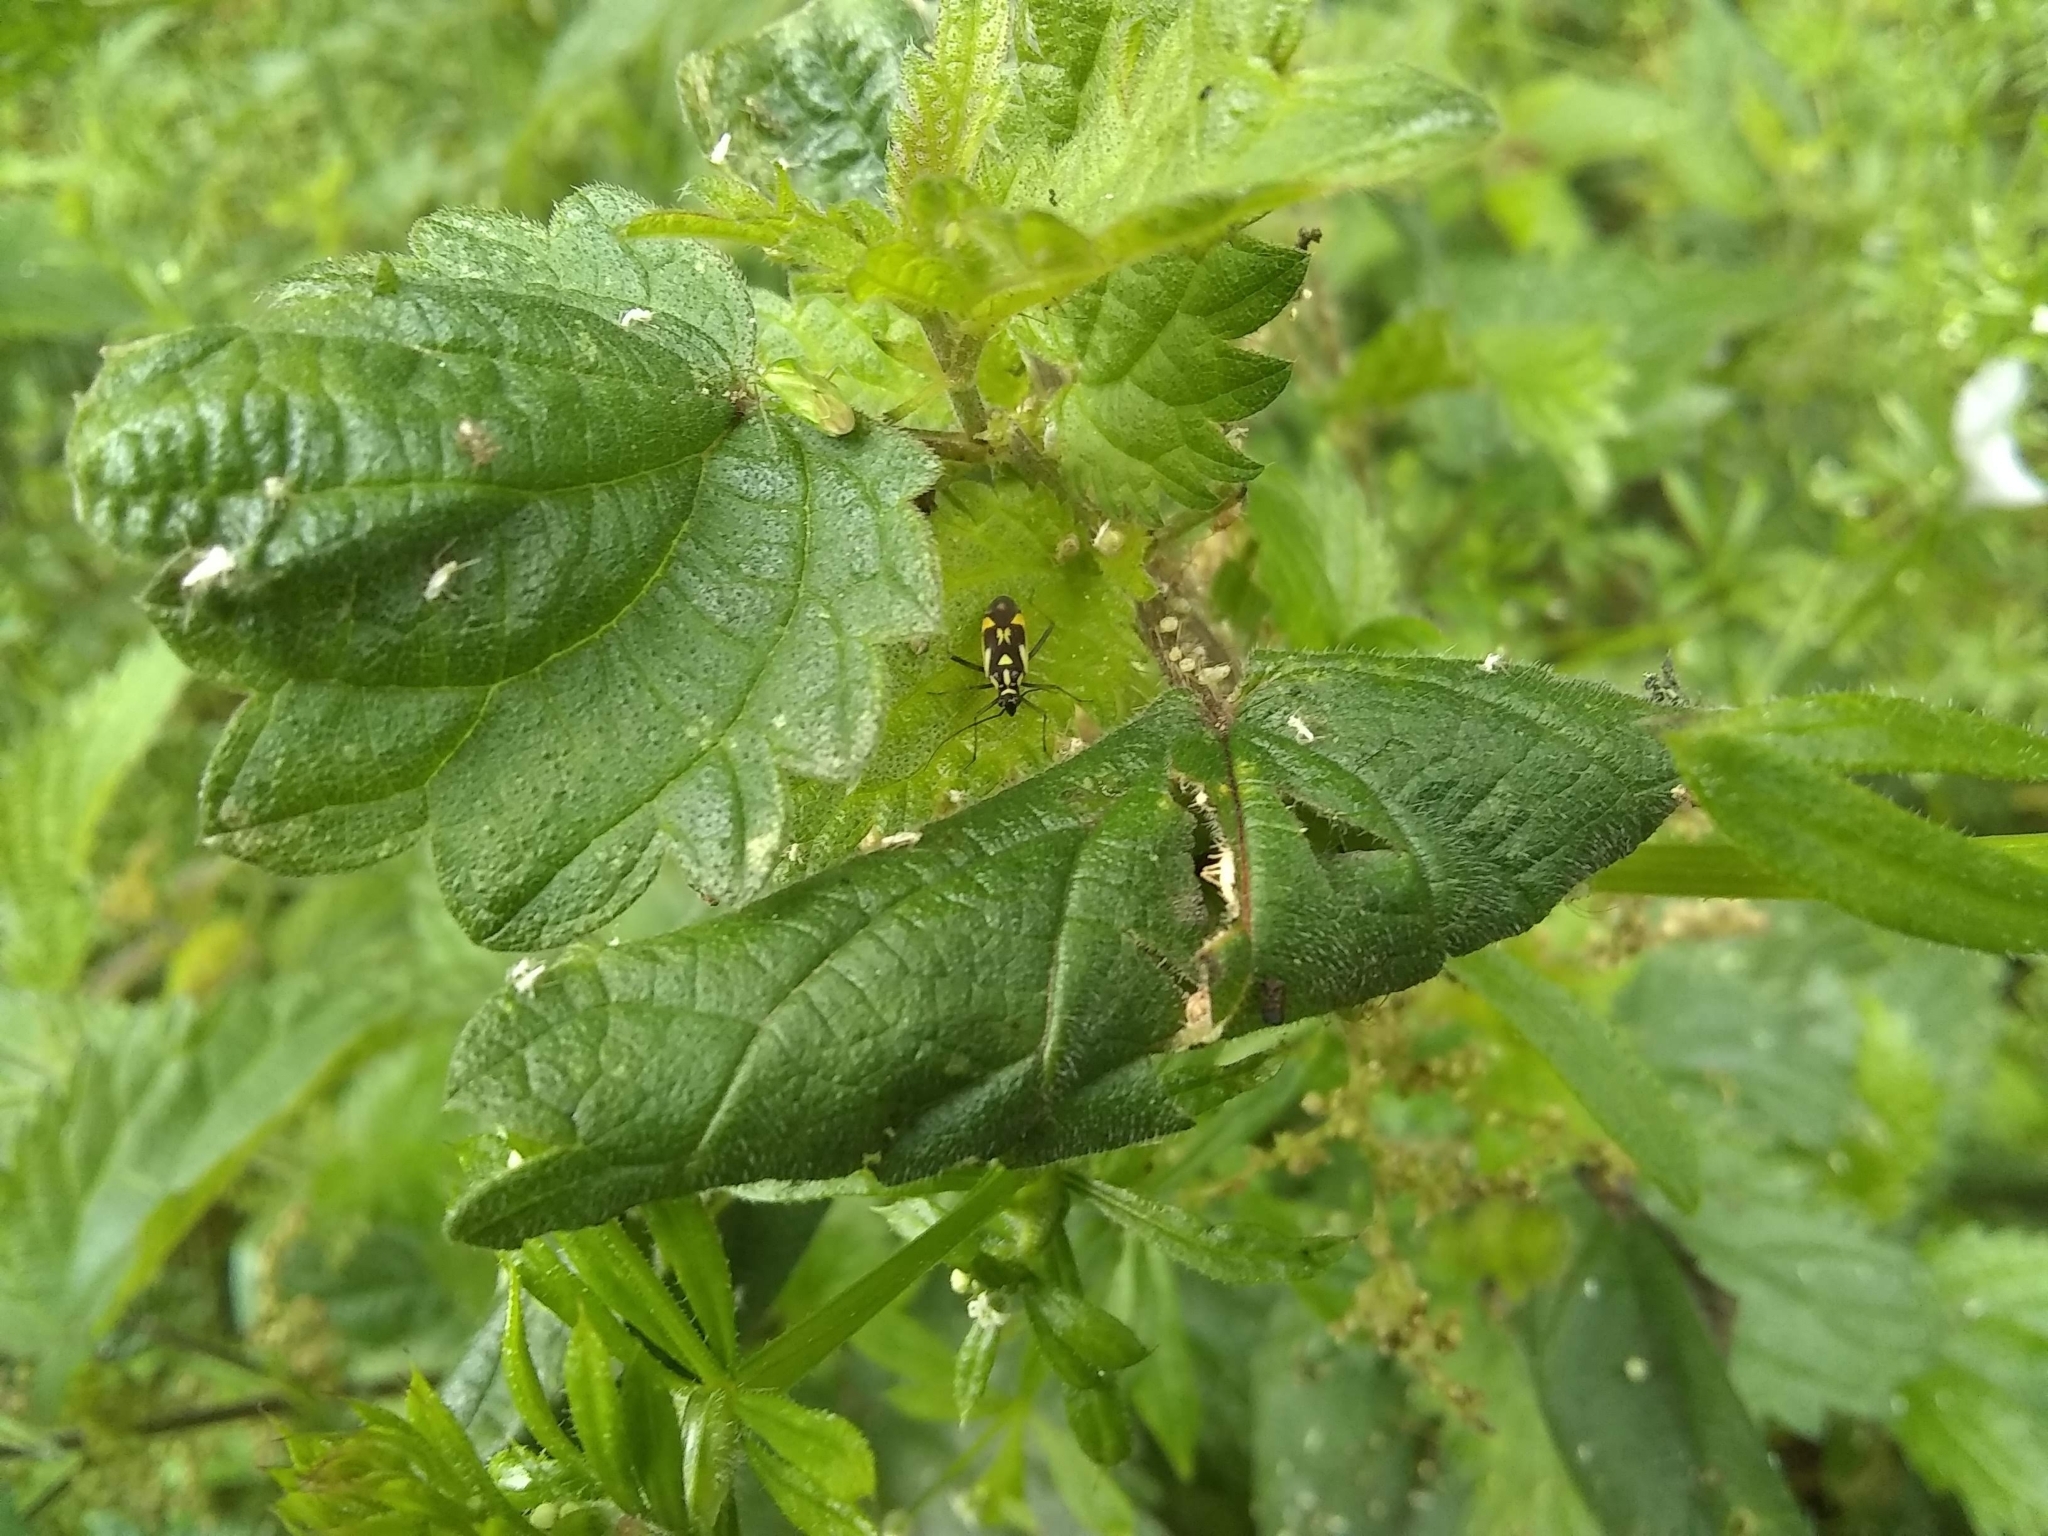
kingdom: Animalia
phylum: Arthropoda
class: Insecta
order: Hemiptera
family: Miridae
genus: Grypocoris
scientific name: Grypocoris stysi
